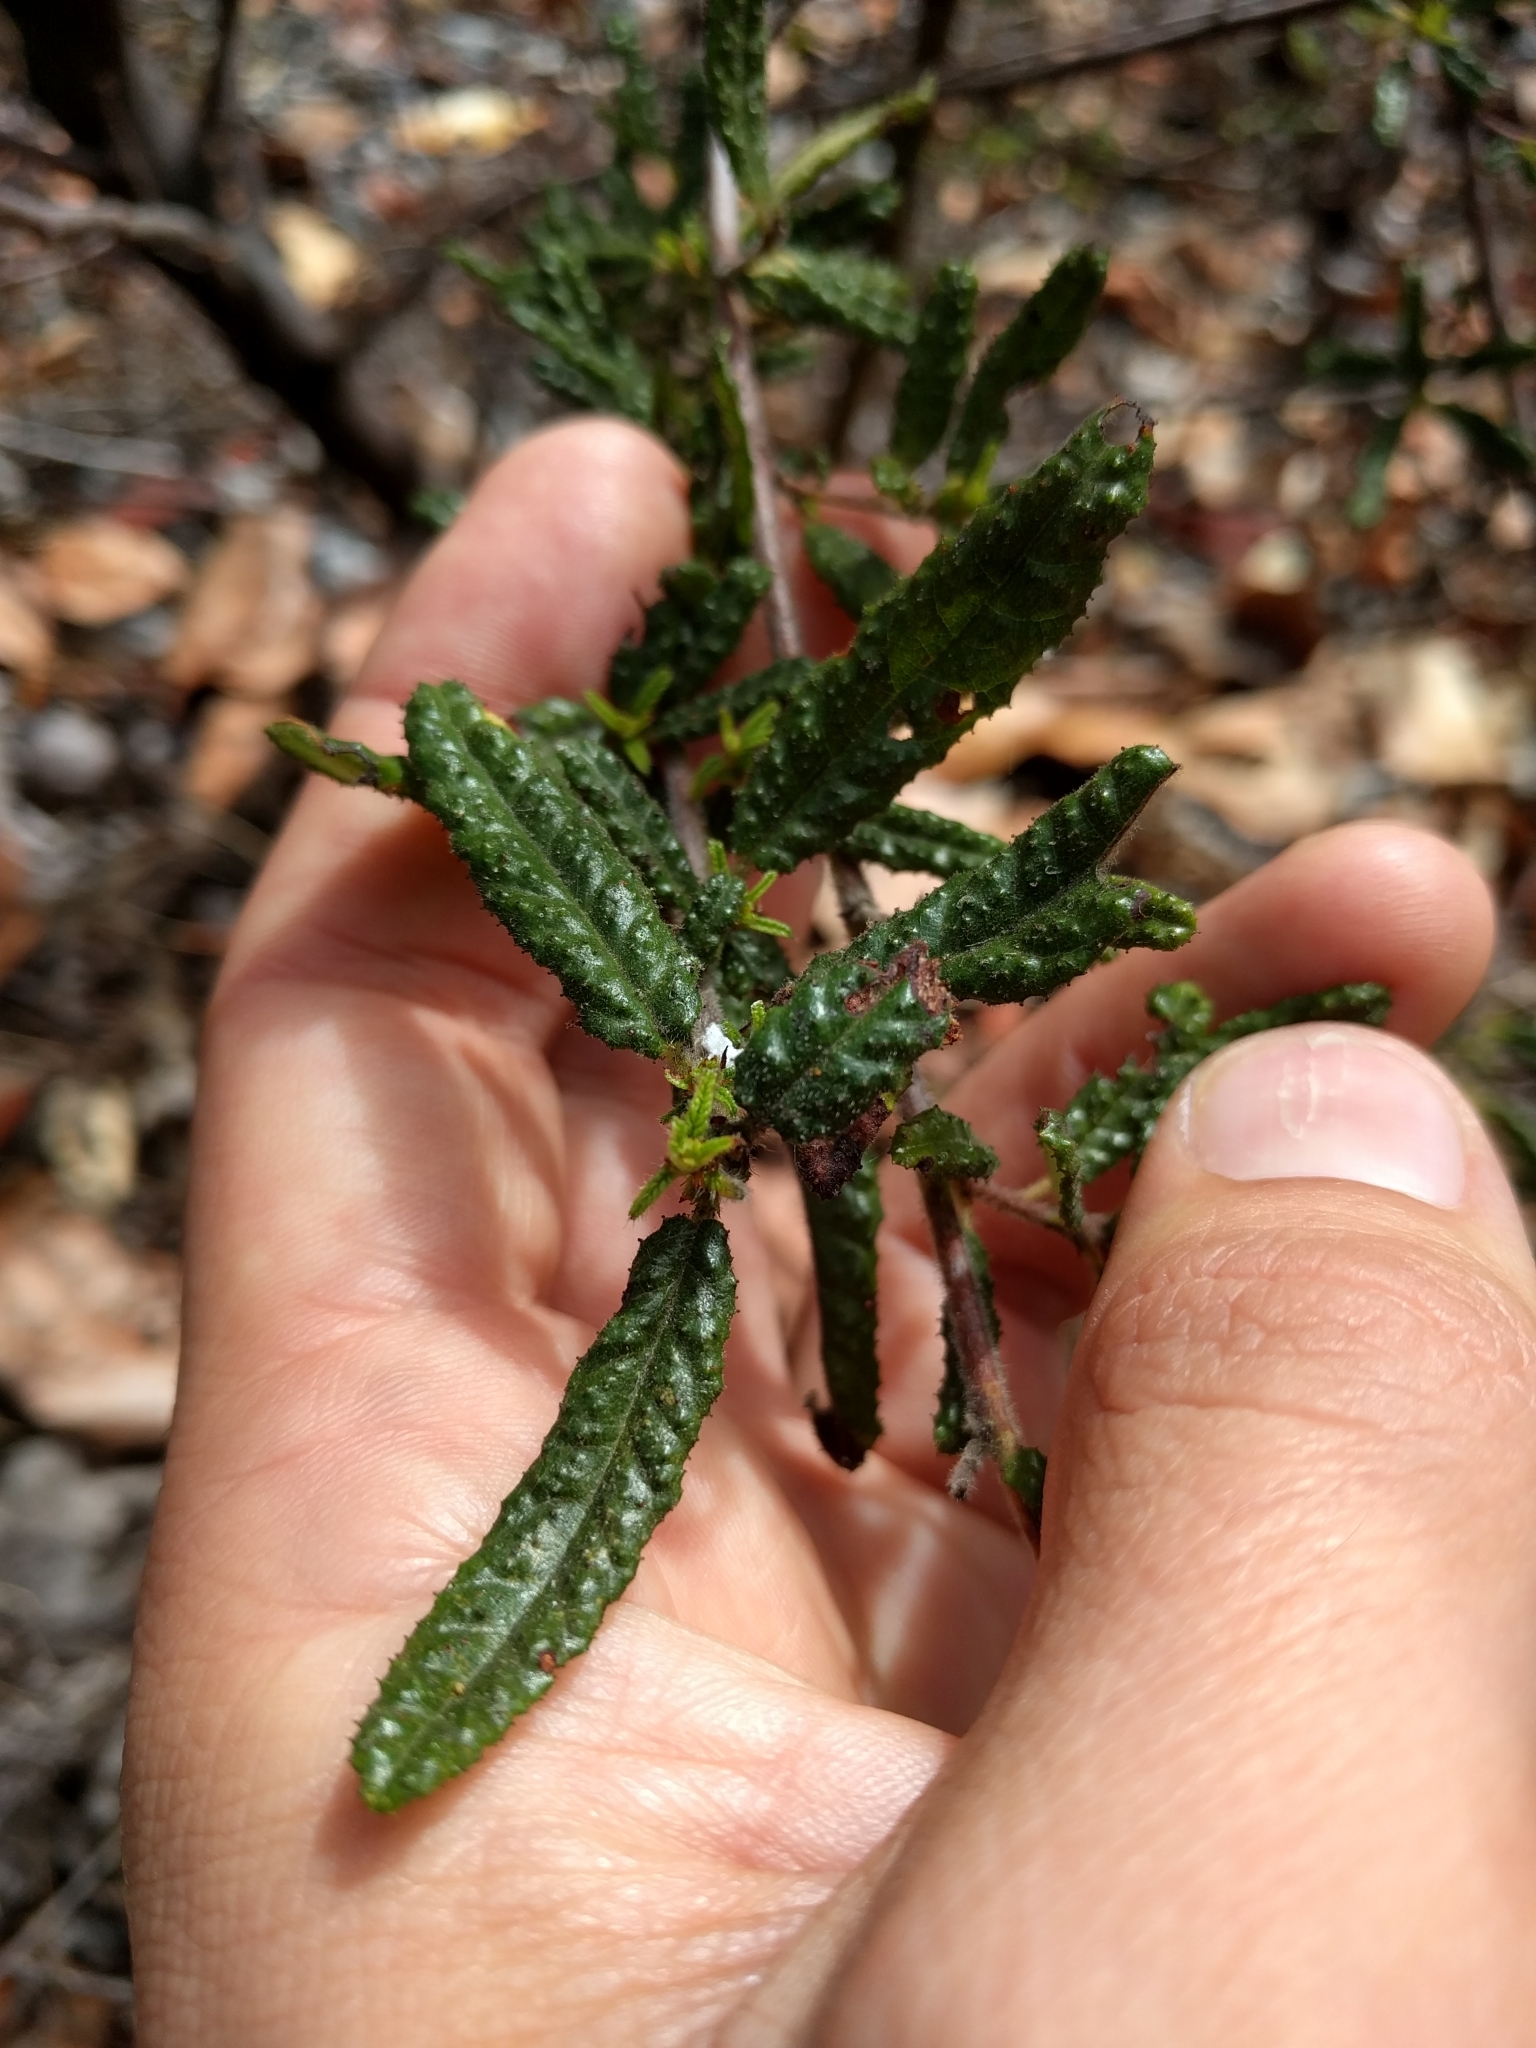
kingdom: Plantae
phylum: Tracheophyta
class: Magnoliopsida
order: Rosales
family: Rhamnaceae
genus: Ceanothus
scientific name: Ceanothus papillosus
